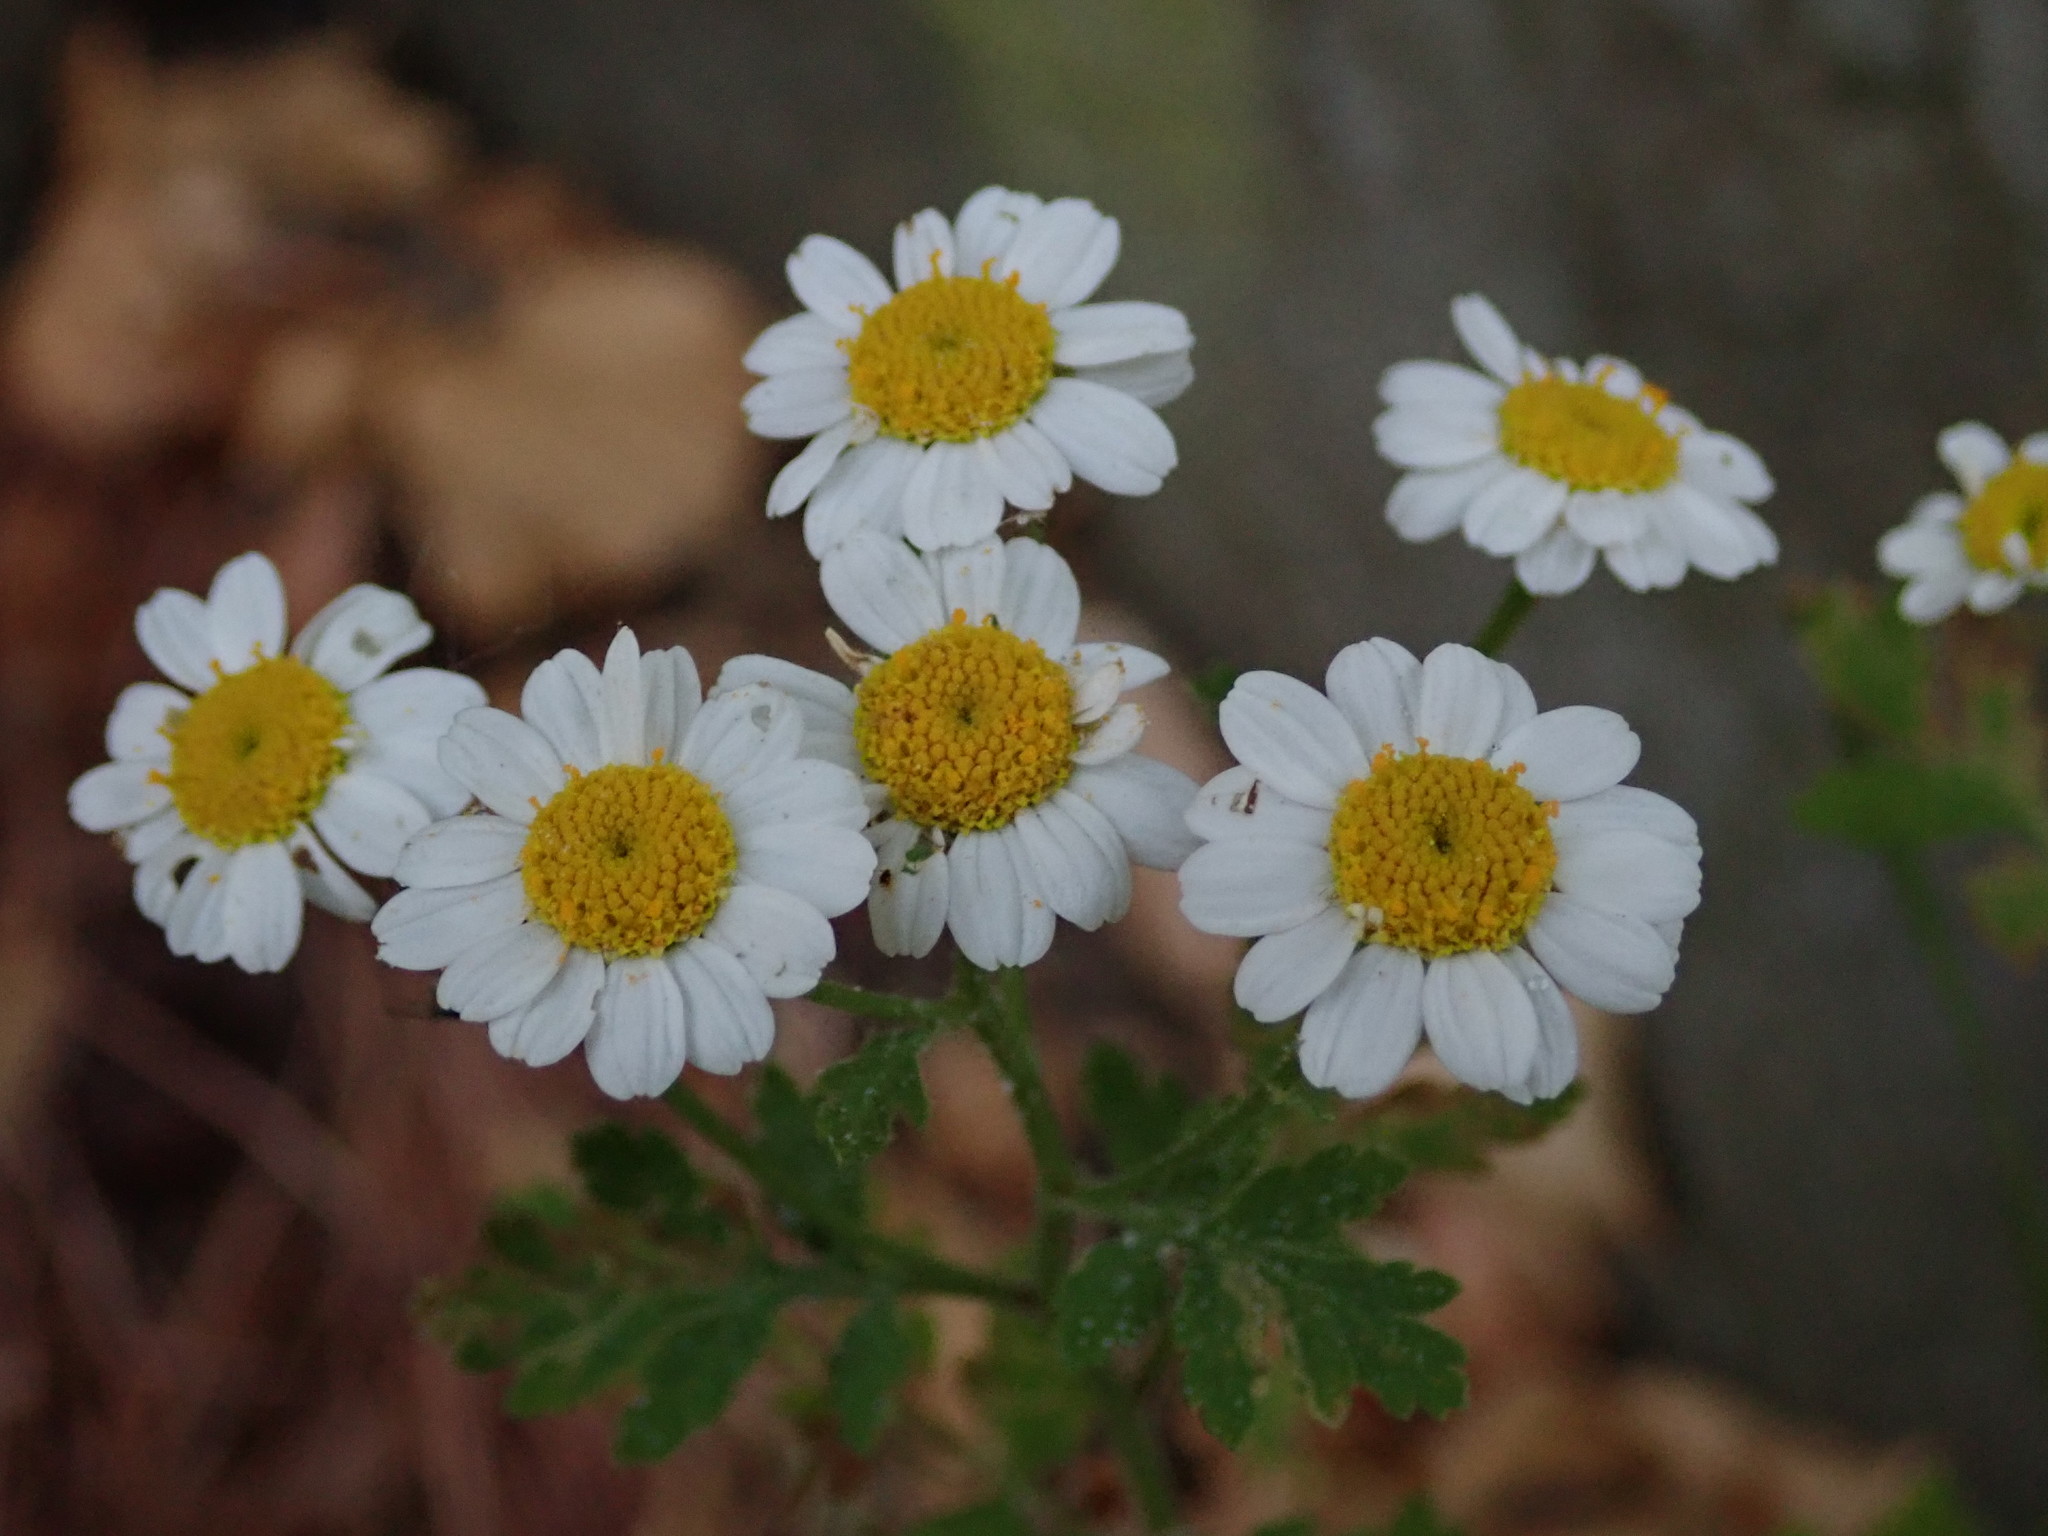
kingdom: Plantae
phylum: Tracheophyta
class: Magnoliopsida
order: Asterales
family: Asteraceae
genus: Tanacetum
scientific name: Tanacetum parthenium
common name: Feverfew
